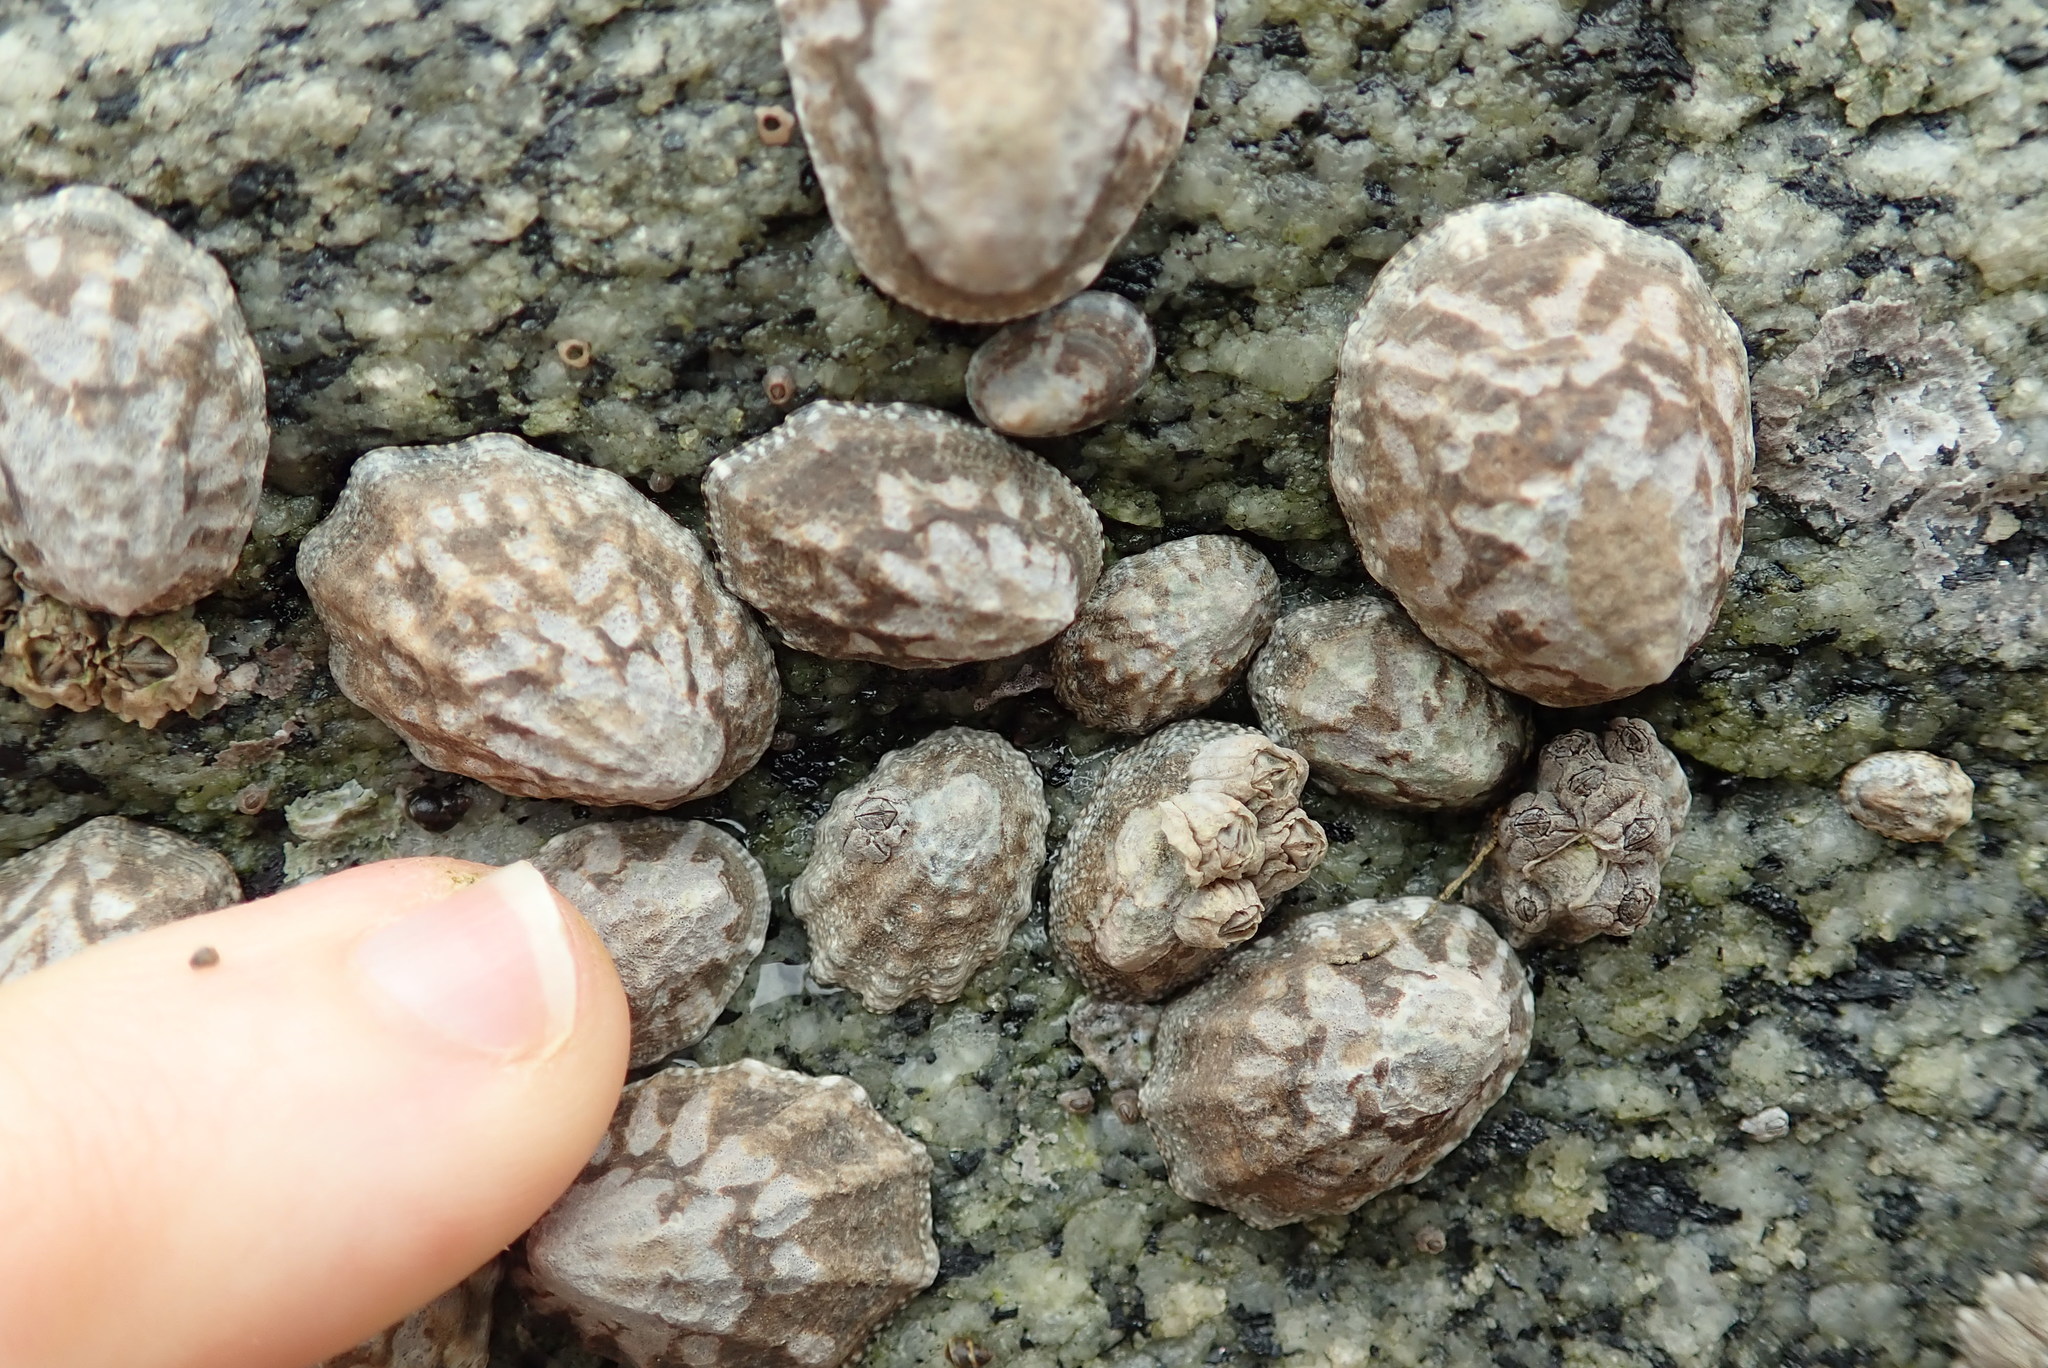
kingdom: Animalia
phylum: Mollusca
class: Gastropoda
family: Lottiidae
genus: Lottia
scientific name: Lottia digitalis
